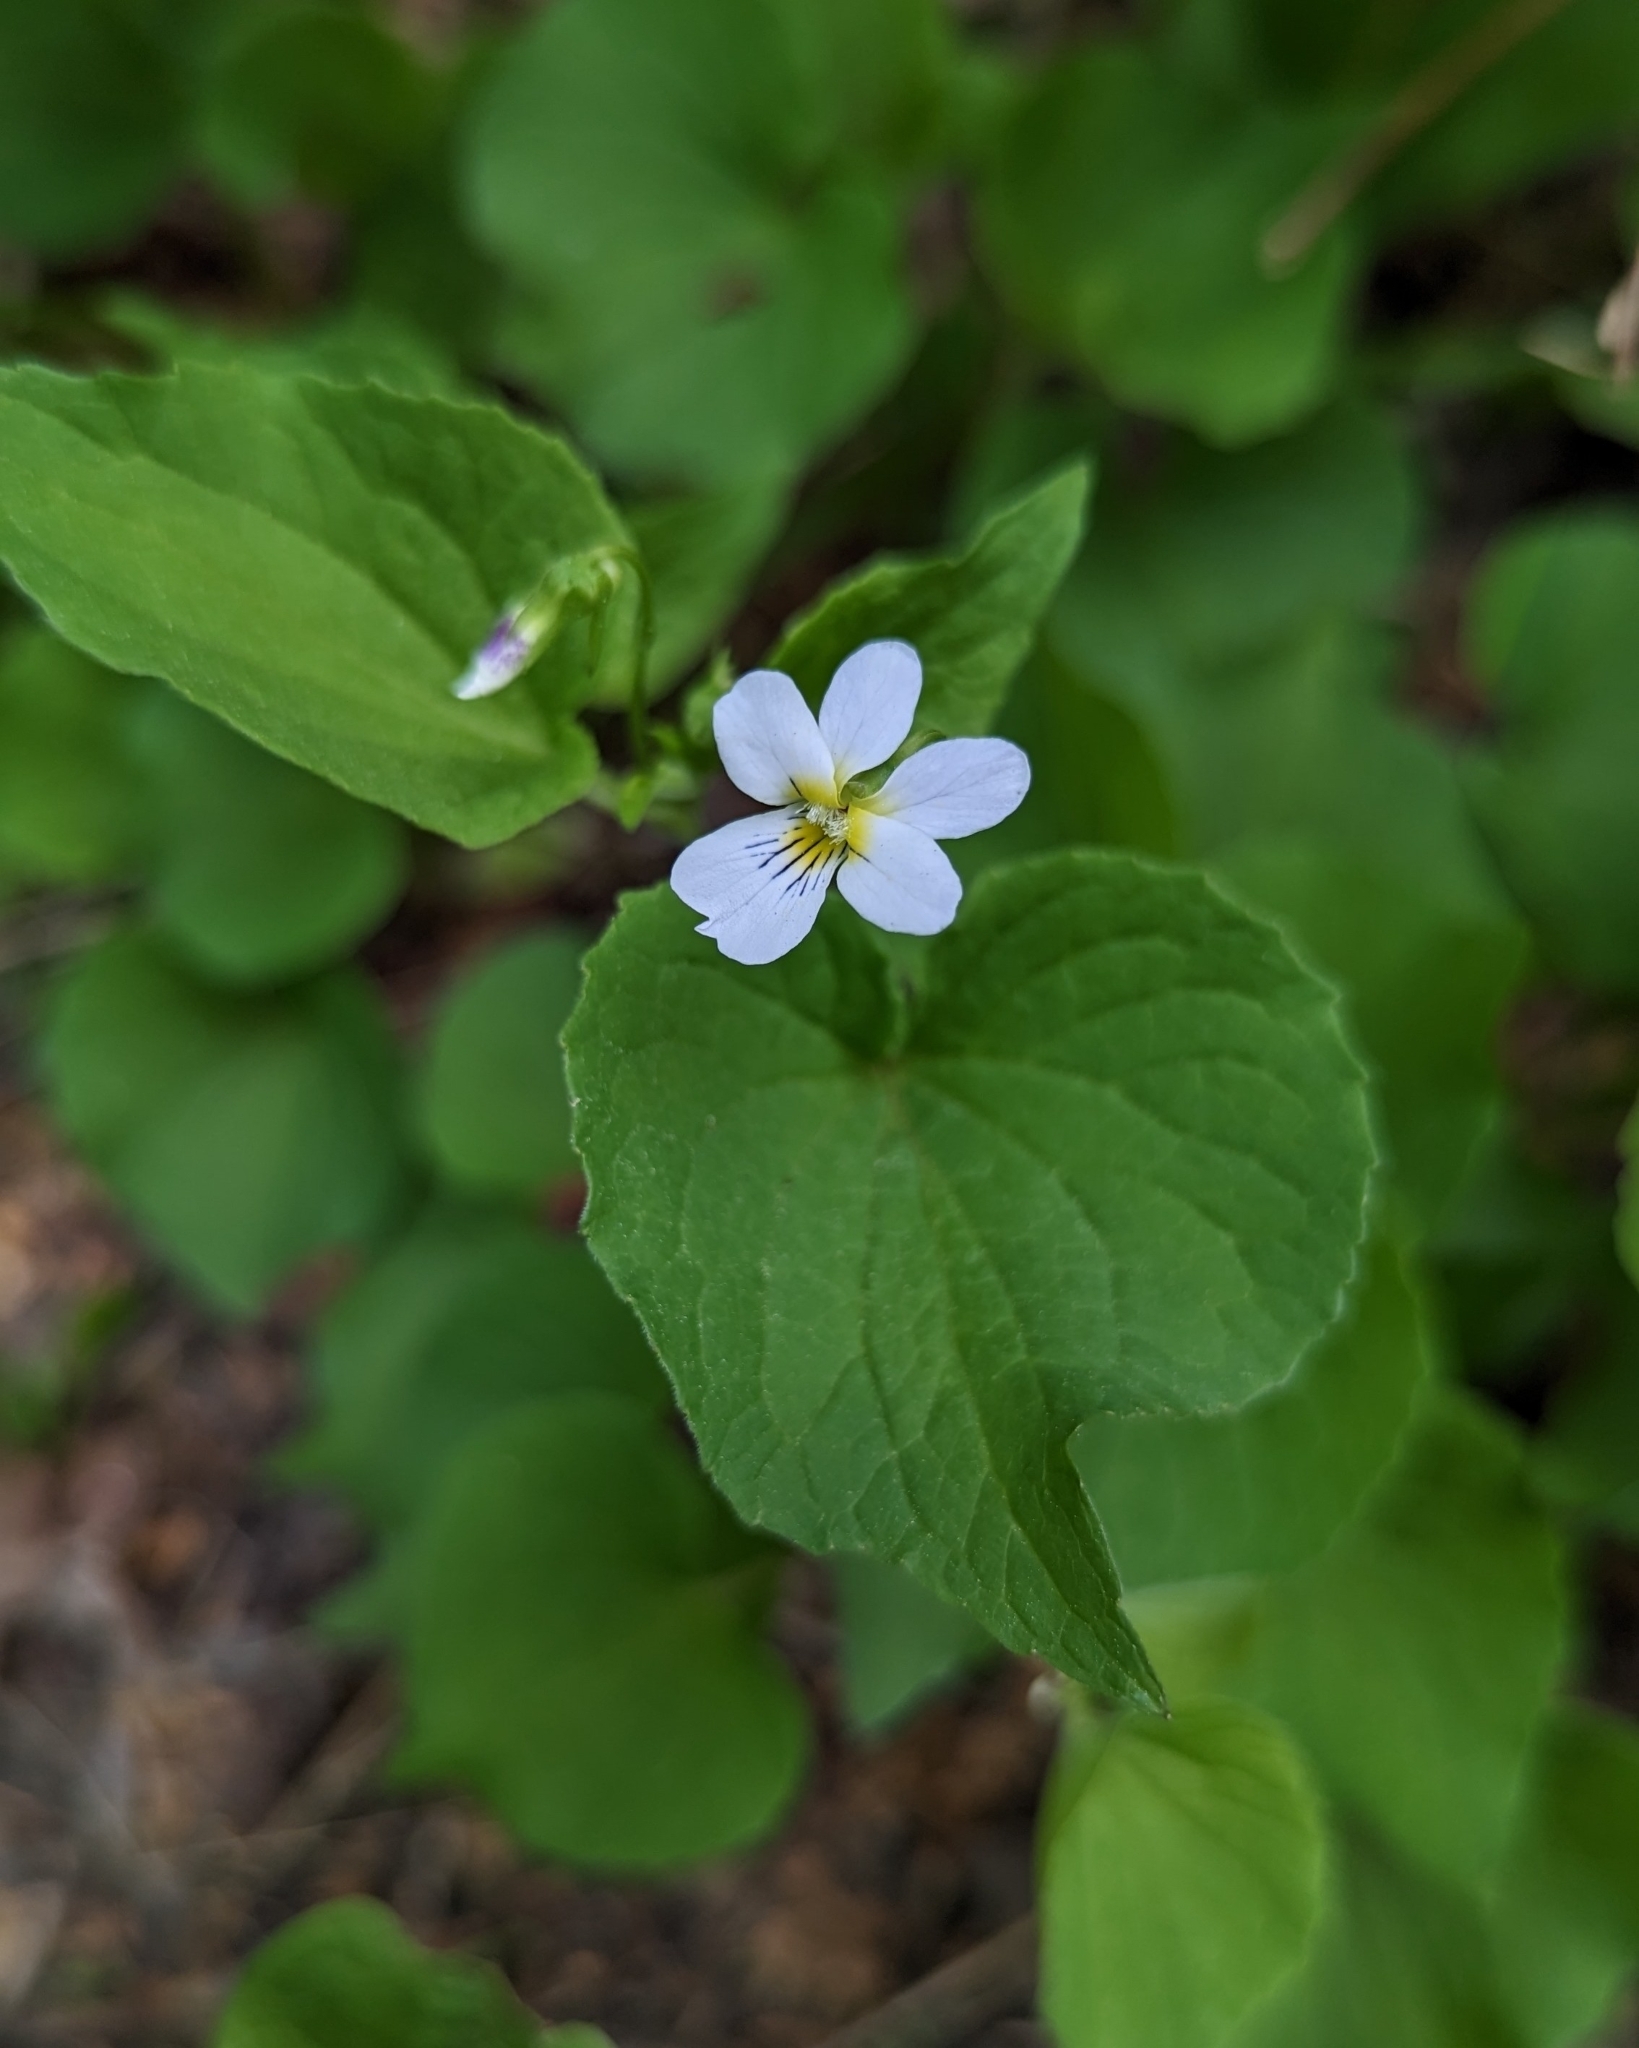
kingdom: Plantae
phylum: Tracheophyta
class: Magnoliopsida
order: Malpighiales
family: Violaceae
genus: Viola
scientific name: Viola canadensis
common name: Canada violet
